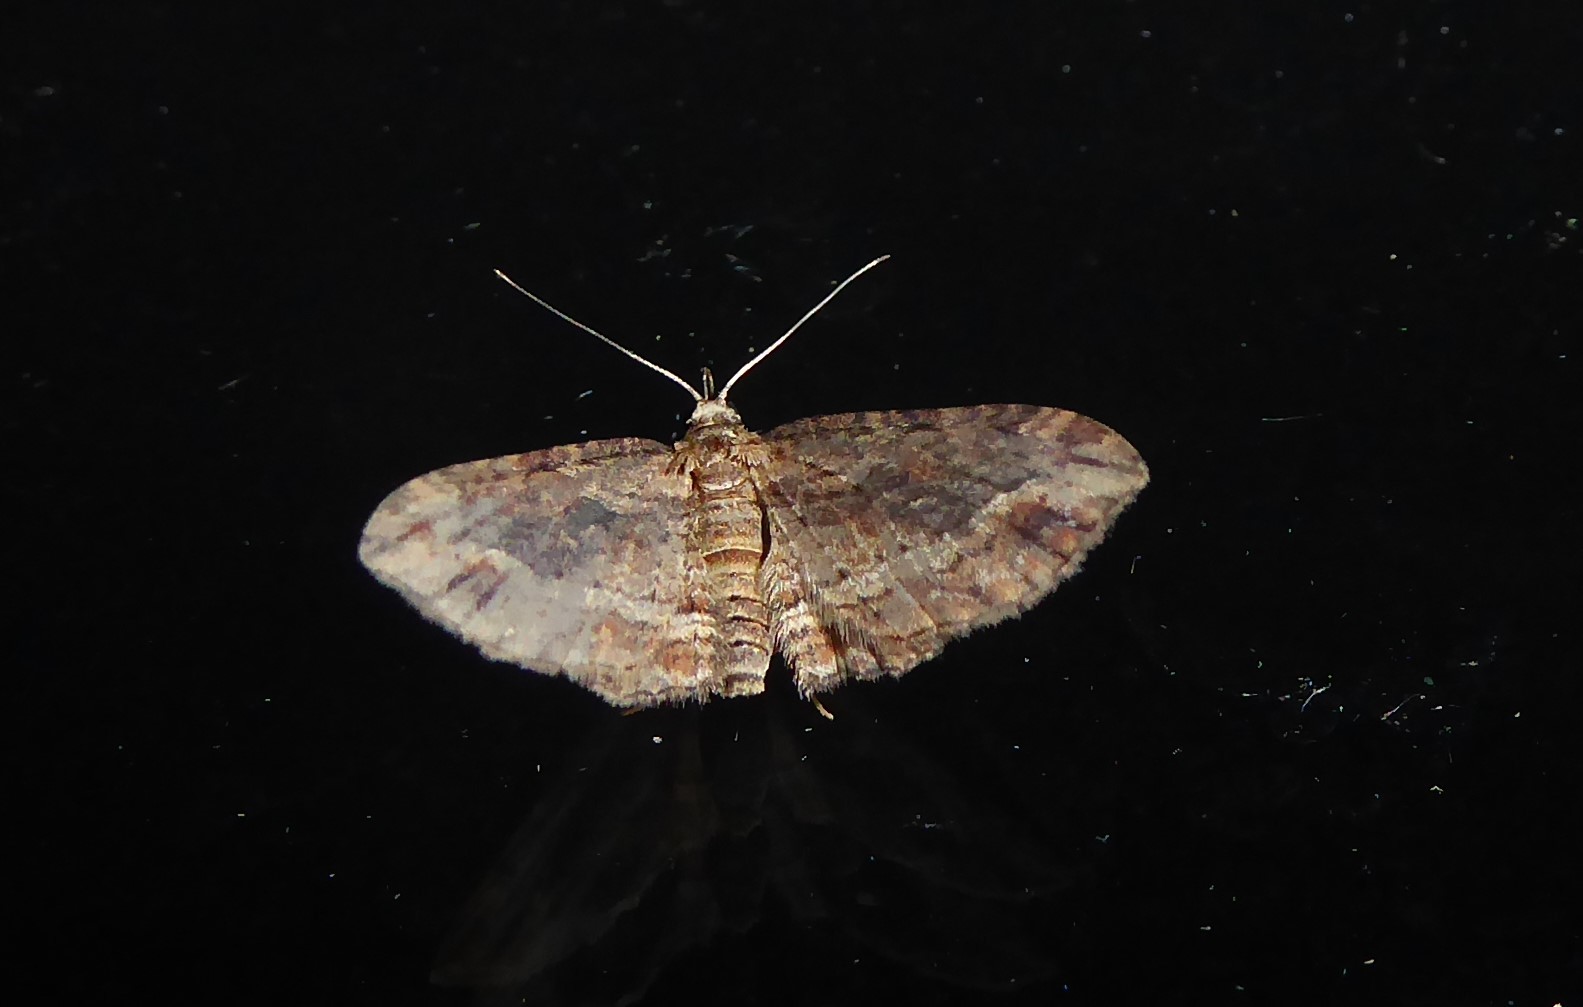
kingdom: Animalia
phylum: Arthropoda
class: Insecta
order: Lepidoptera
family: Geometridae
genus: Chloroclystis
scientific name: Chloroclystis filata
